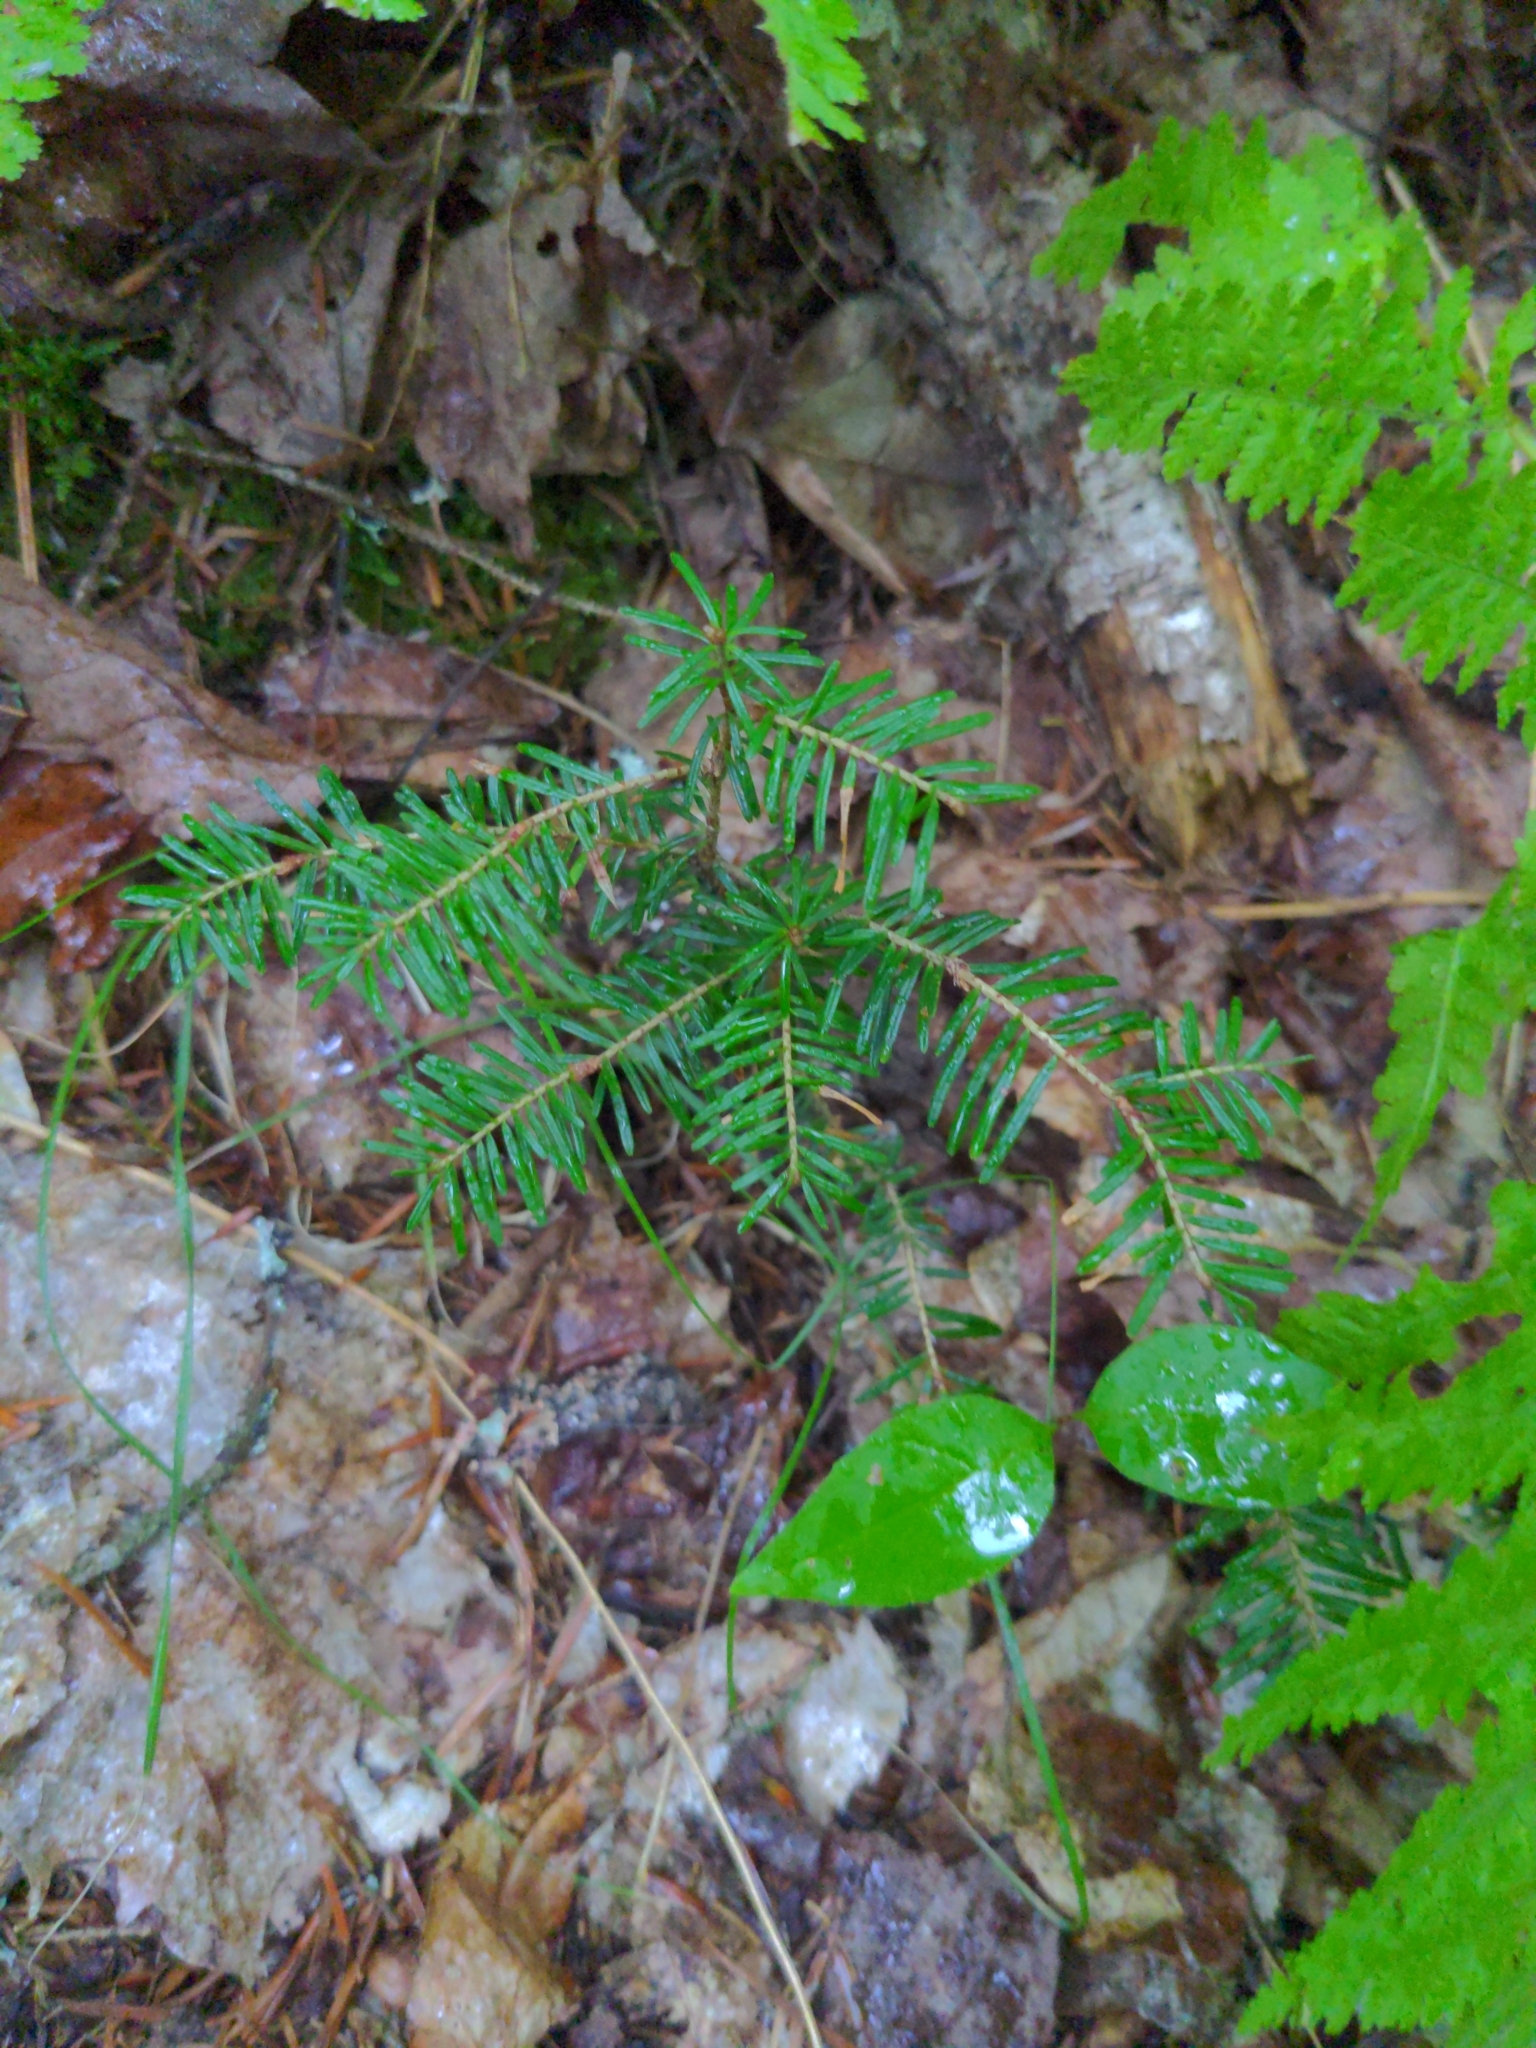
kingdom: Plantae
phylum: Tracheophyta
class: Pinopsida
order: Pinales
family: Pinaceae
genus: Tsuga
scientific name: Tsuga canadensis
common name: Eastern hemlock
